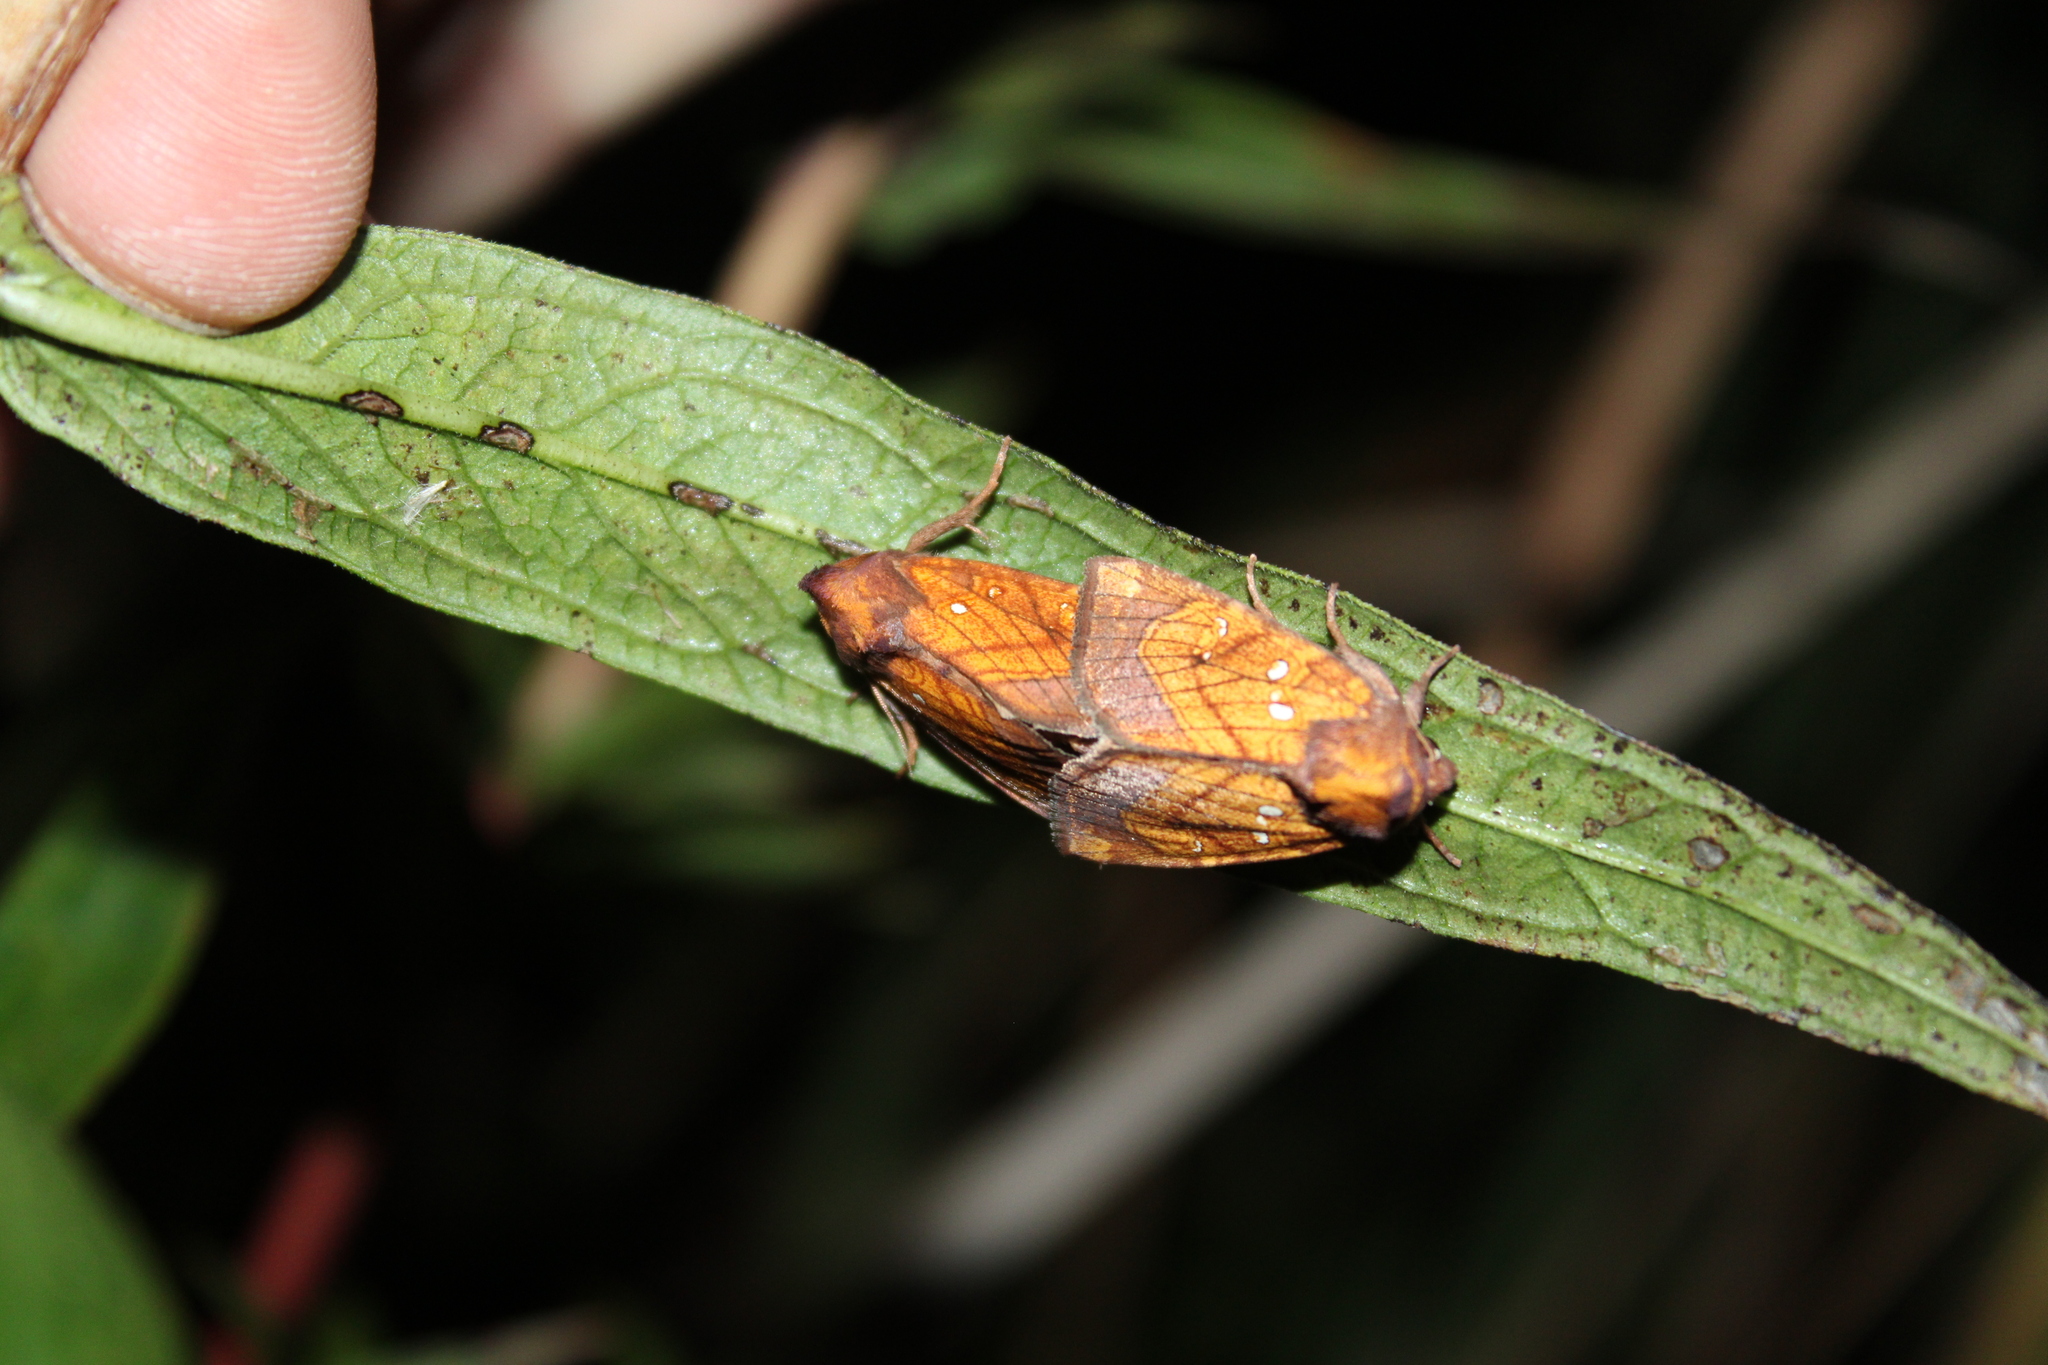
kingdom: Animalia
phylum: Arthropoda
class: Insecta
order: Lepidoptera
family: Noctuidae
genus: Papaipema
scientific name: Papaipema inquaesita
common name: Sensitive fern borer moth
